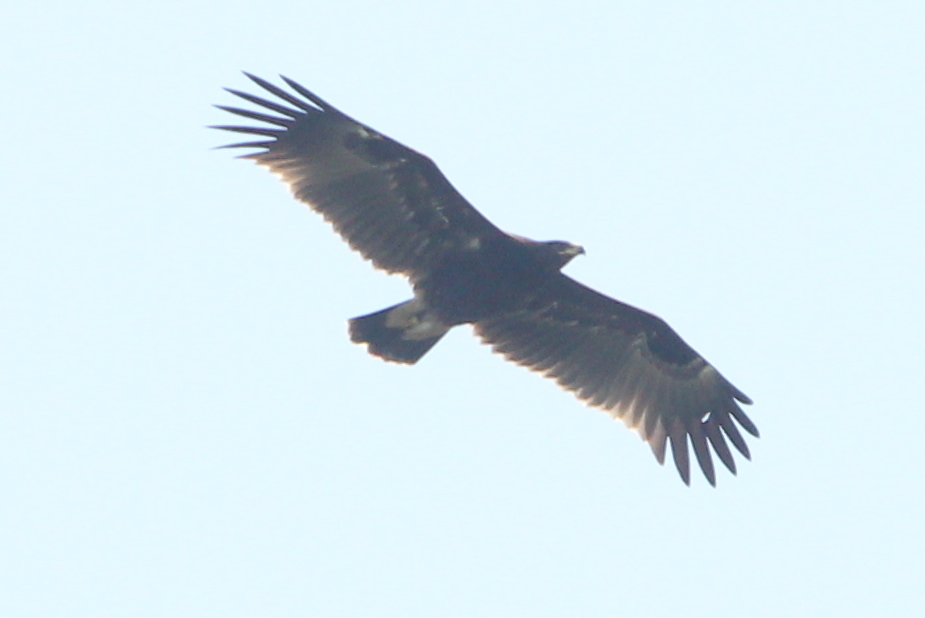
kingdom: Animalia
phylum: Chordata
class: Aves
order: Accipitriformes
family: Accipitridae
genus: Aquila
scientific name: Aquila clanga
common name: Greater spotted eagle
